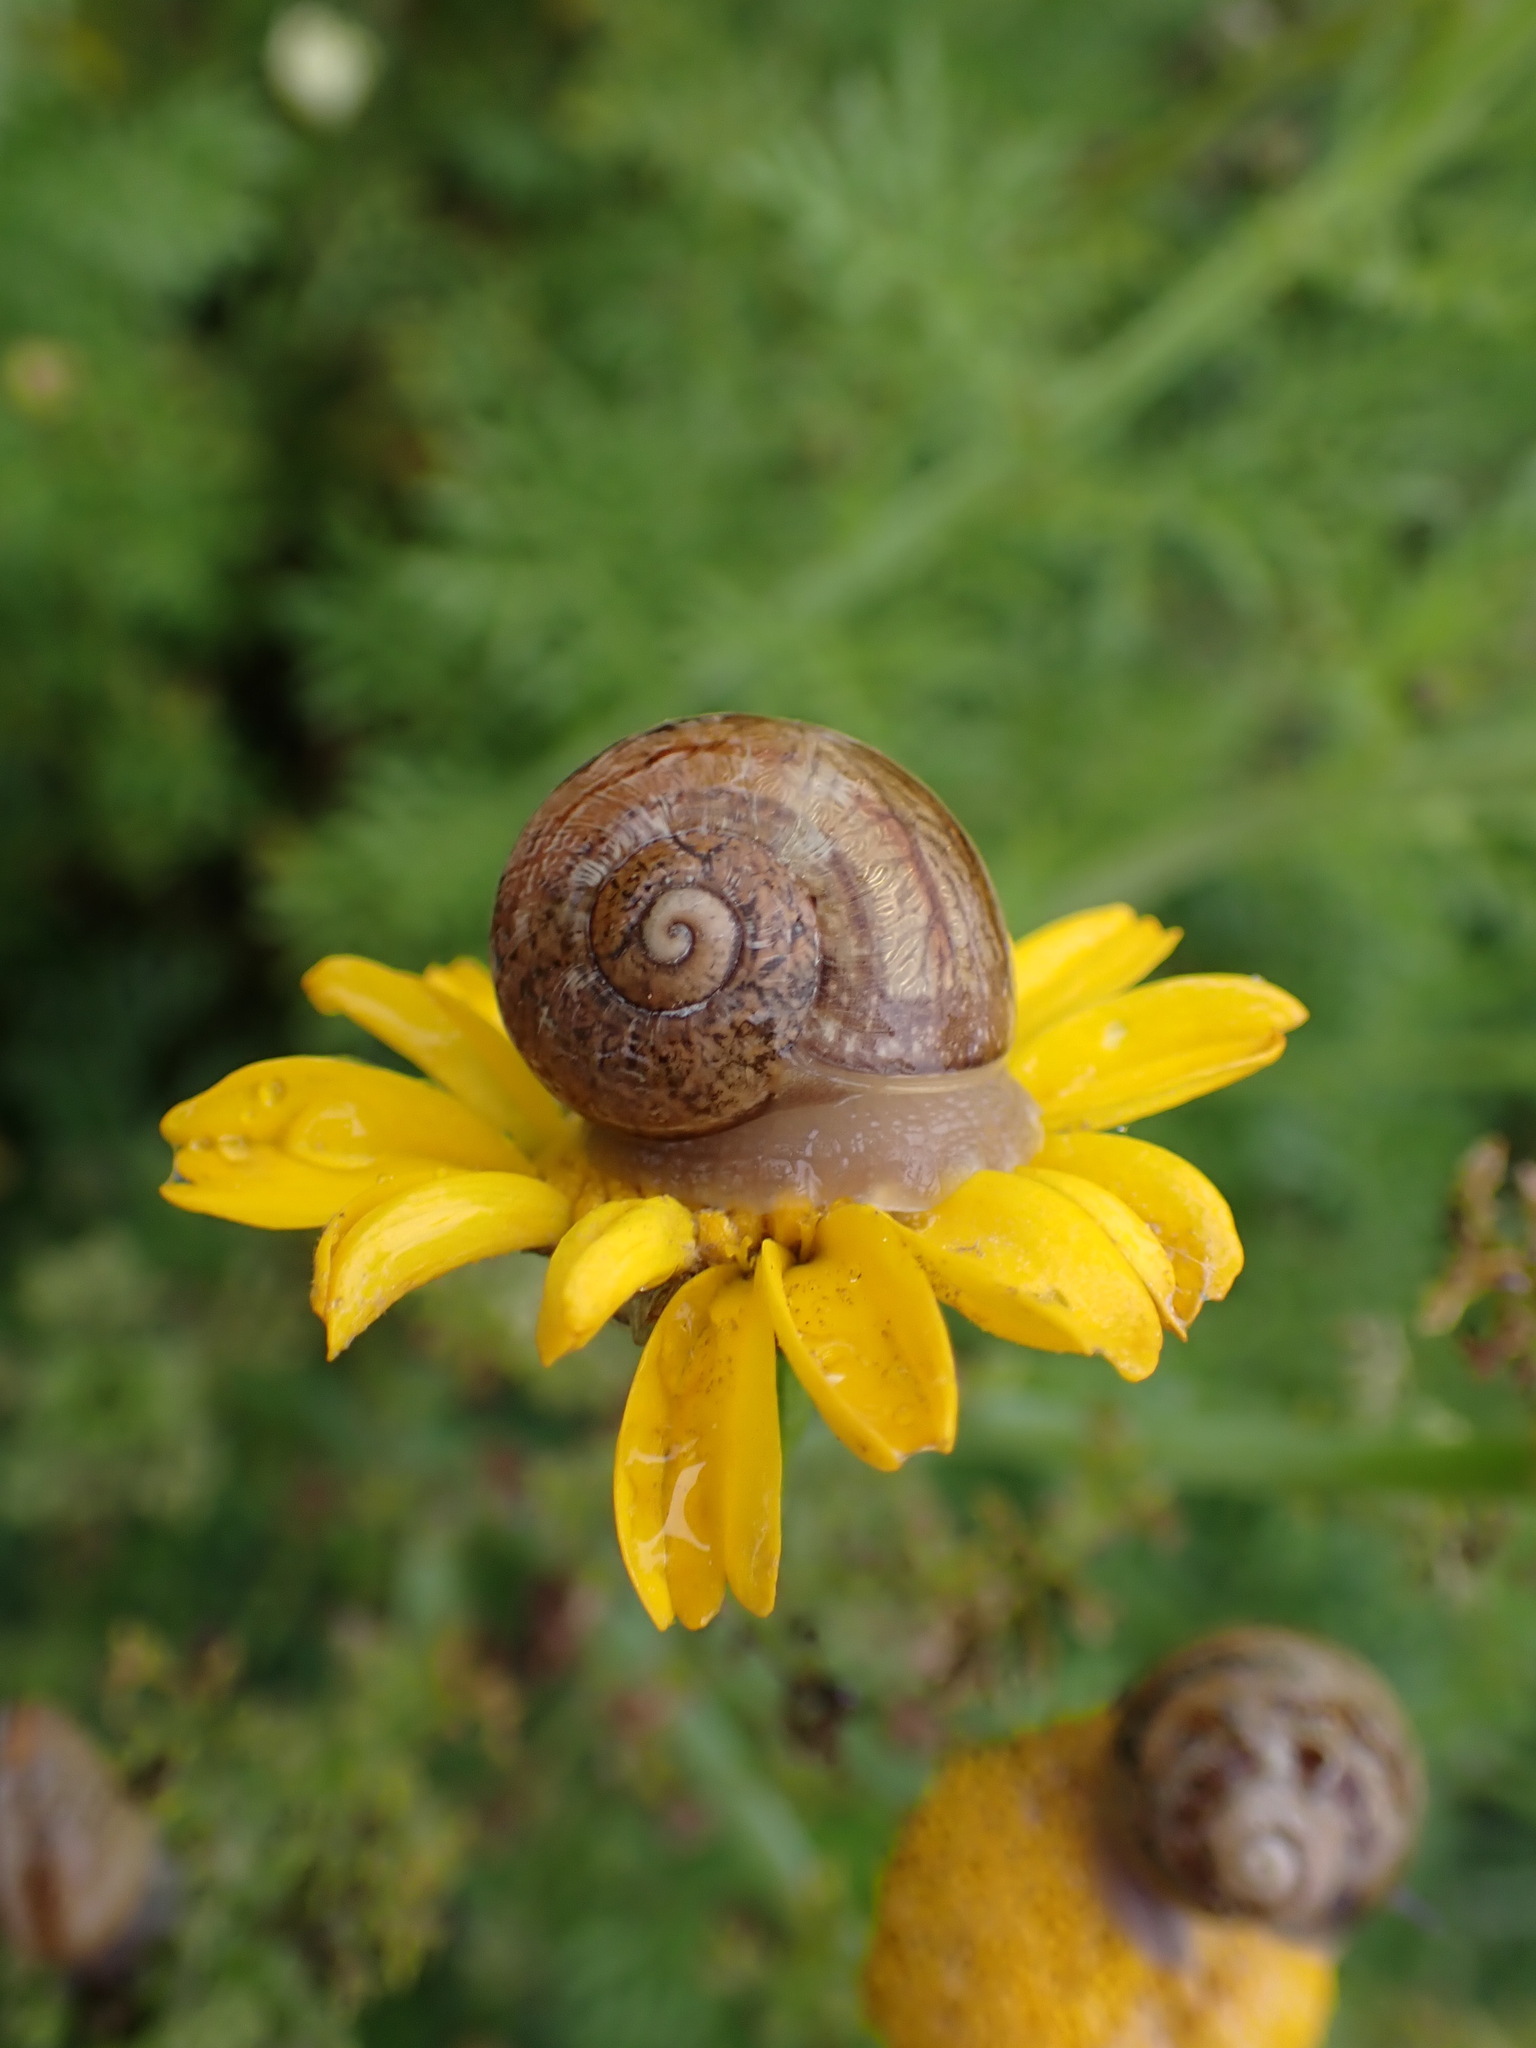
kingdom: Animalia
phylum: Mollusca
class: Gastropoda
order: Stylommatophora
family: Helicidae
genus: Cornu
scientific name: Cornu aspersum
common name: Brown garden snail
